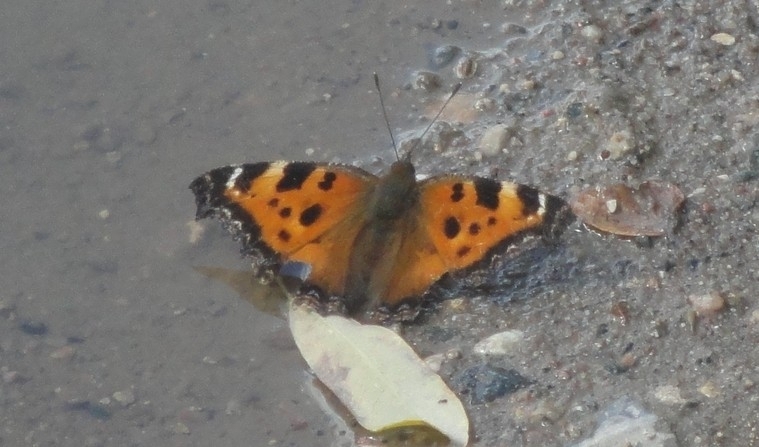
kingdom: Animalia
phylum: Arthropoda
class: Insecta
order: Lepidoptera
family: Nymphalidae
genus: Nymphalis
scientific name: Nymphalis xanthomelas
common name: Scarce tortoiseshell
